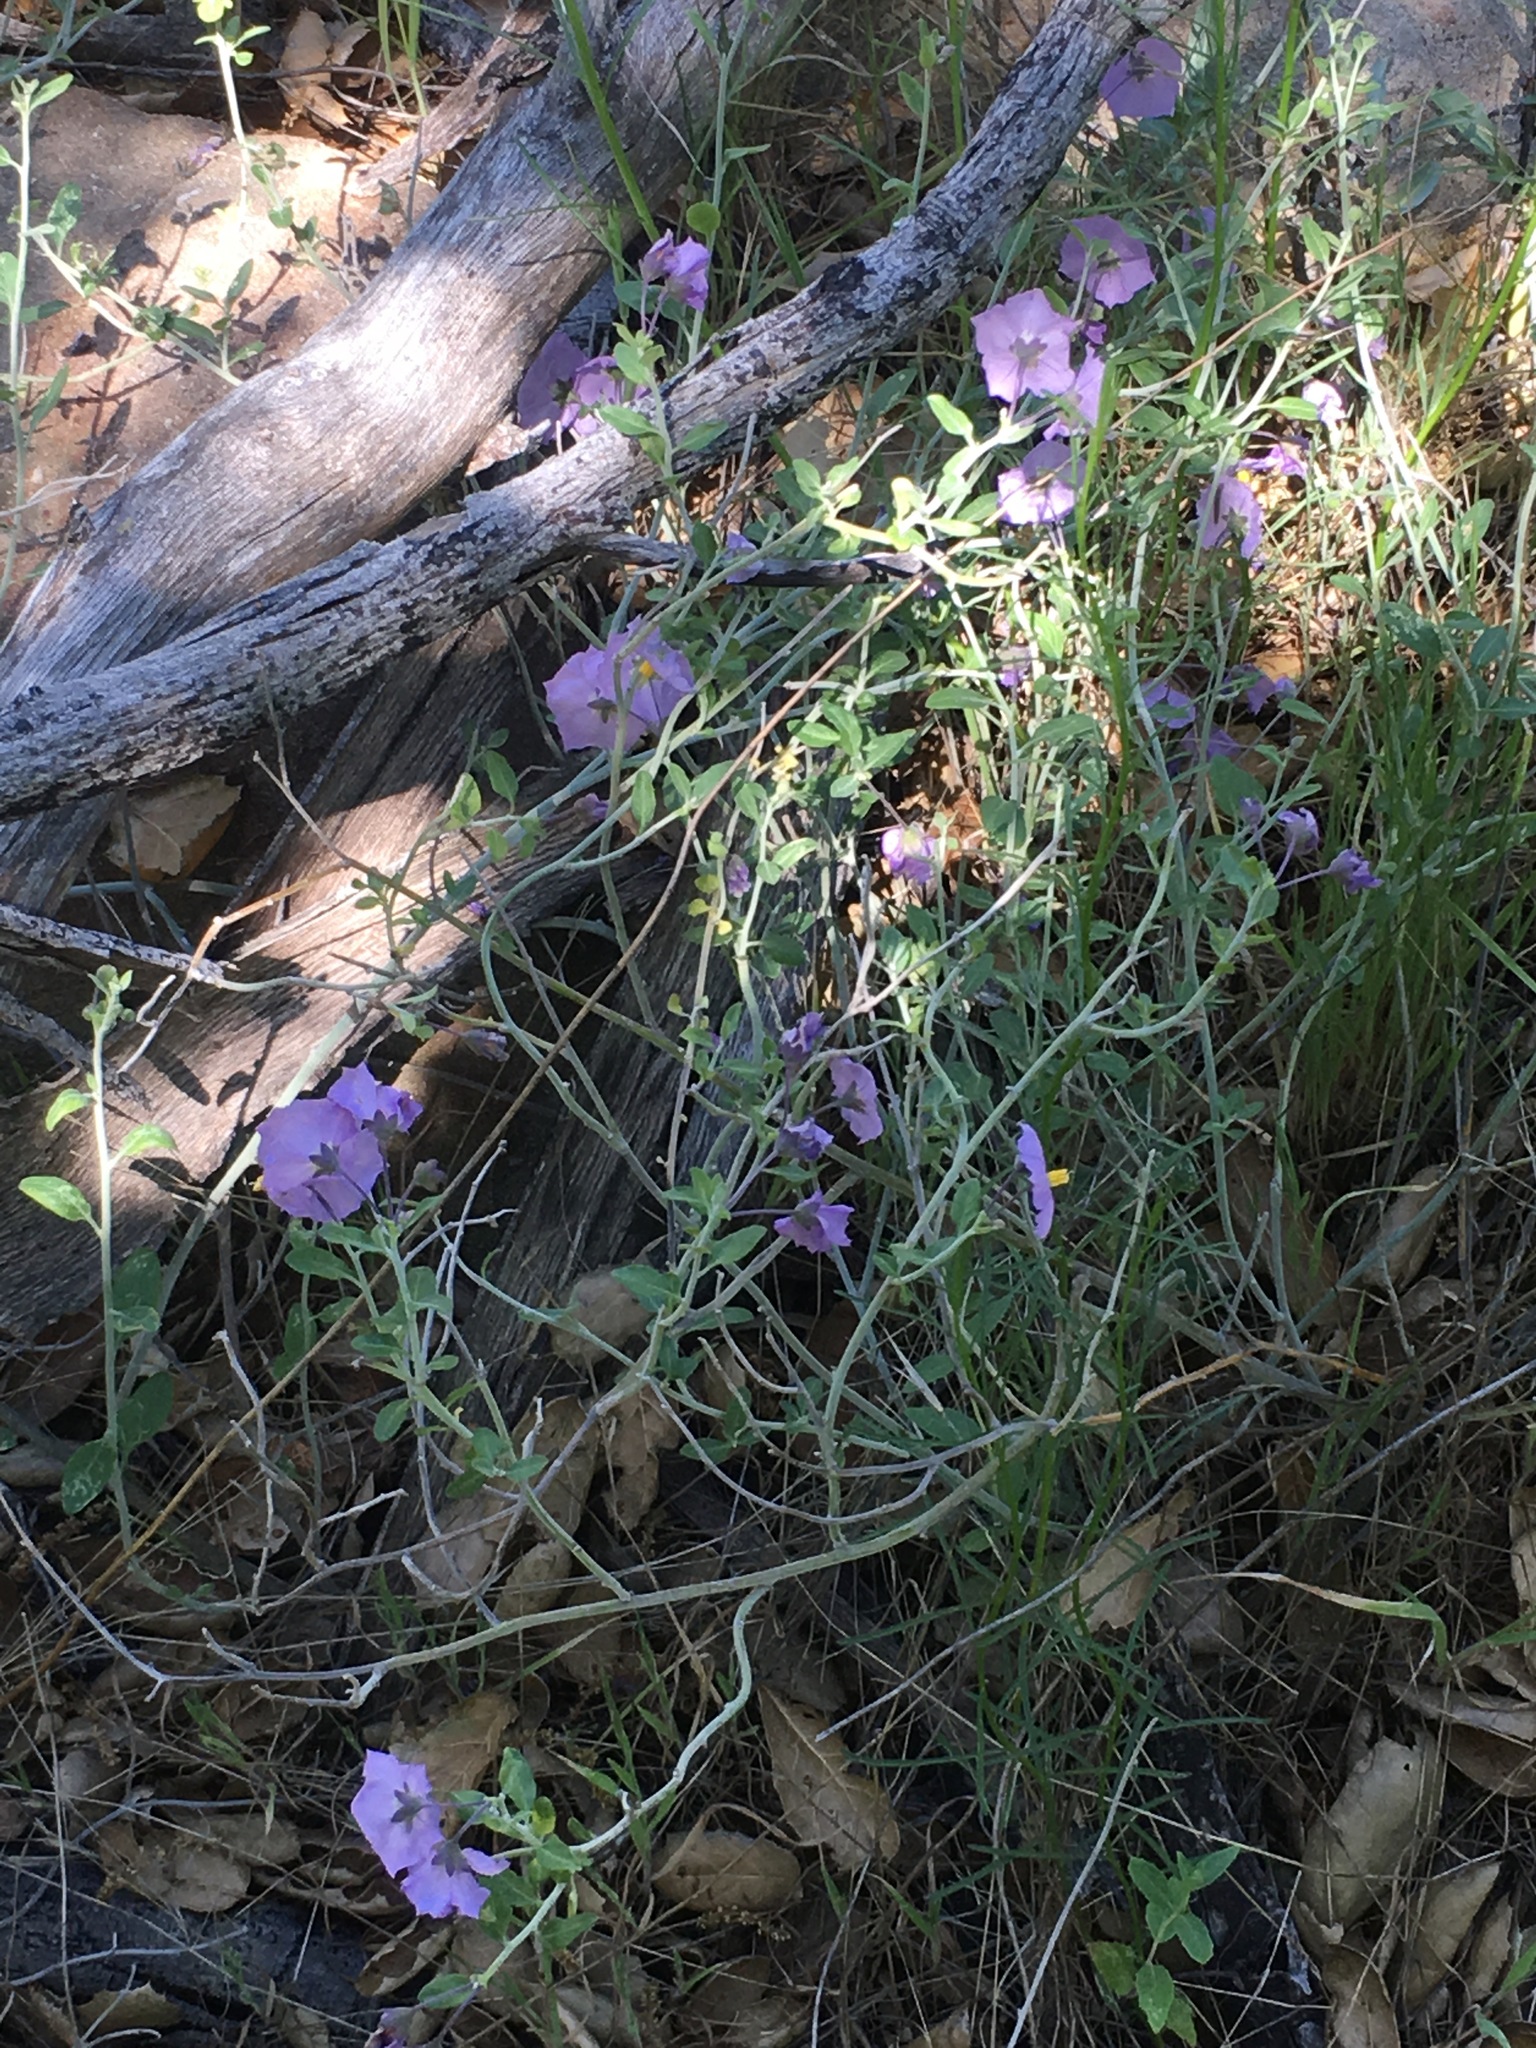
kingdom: Plantae
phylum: Tracheophyta
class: Magnoliopsida
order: Solanales
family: Solanaceae
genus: Solanum
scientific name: Solanum umbelliferum
